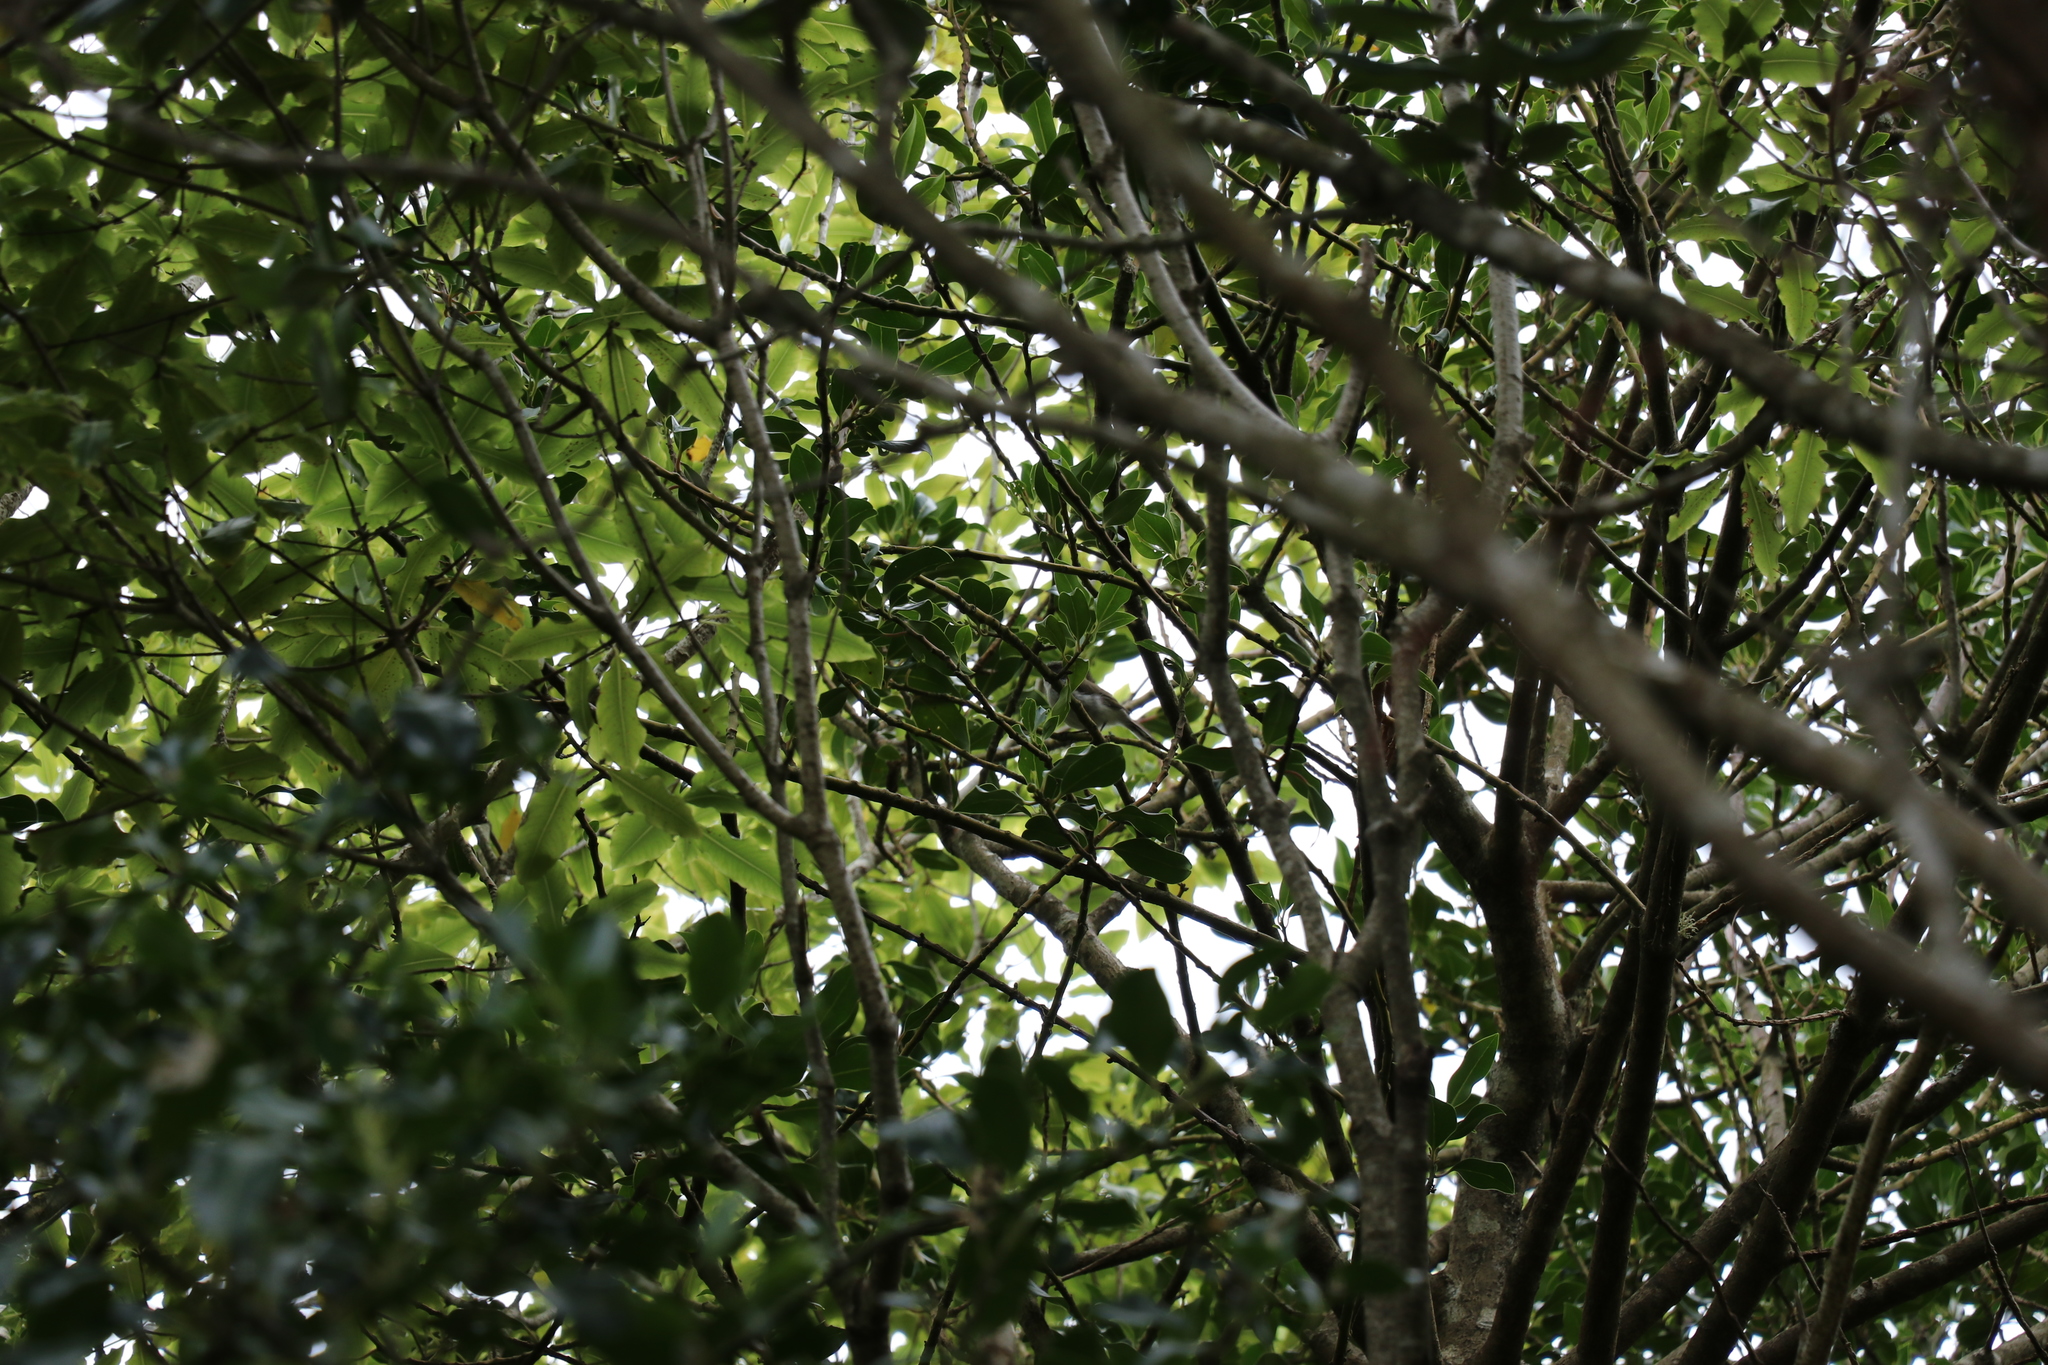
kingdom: Animalia
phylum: Chordata
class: Aves
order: Passeriformes
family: Acanthizidae
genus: Gerygone
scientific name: Gerygone igata
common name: Grey gerygone
